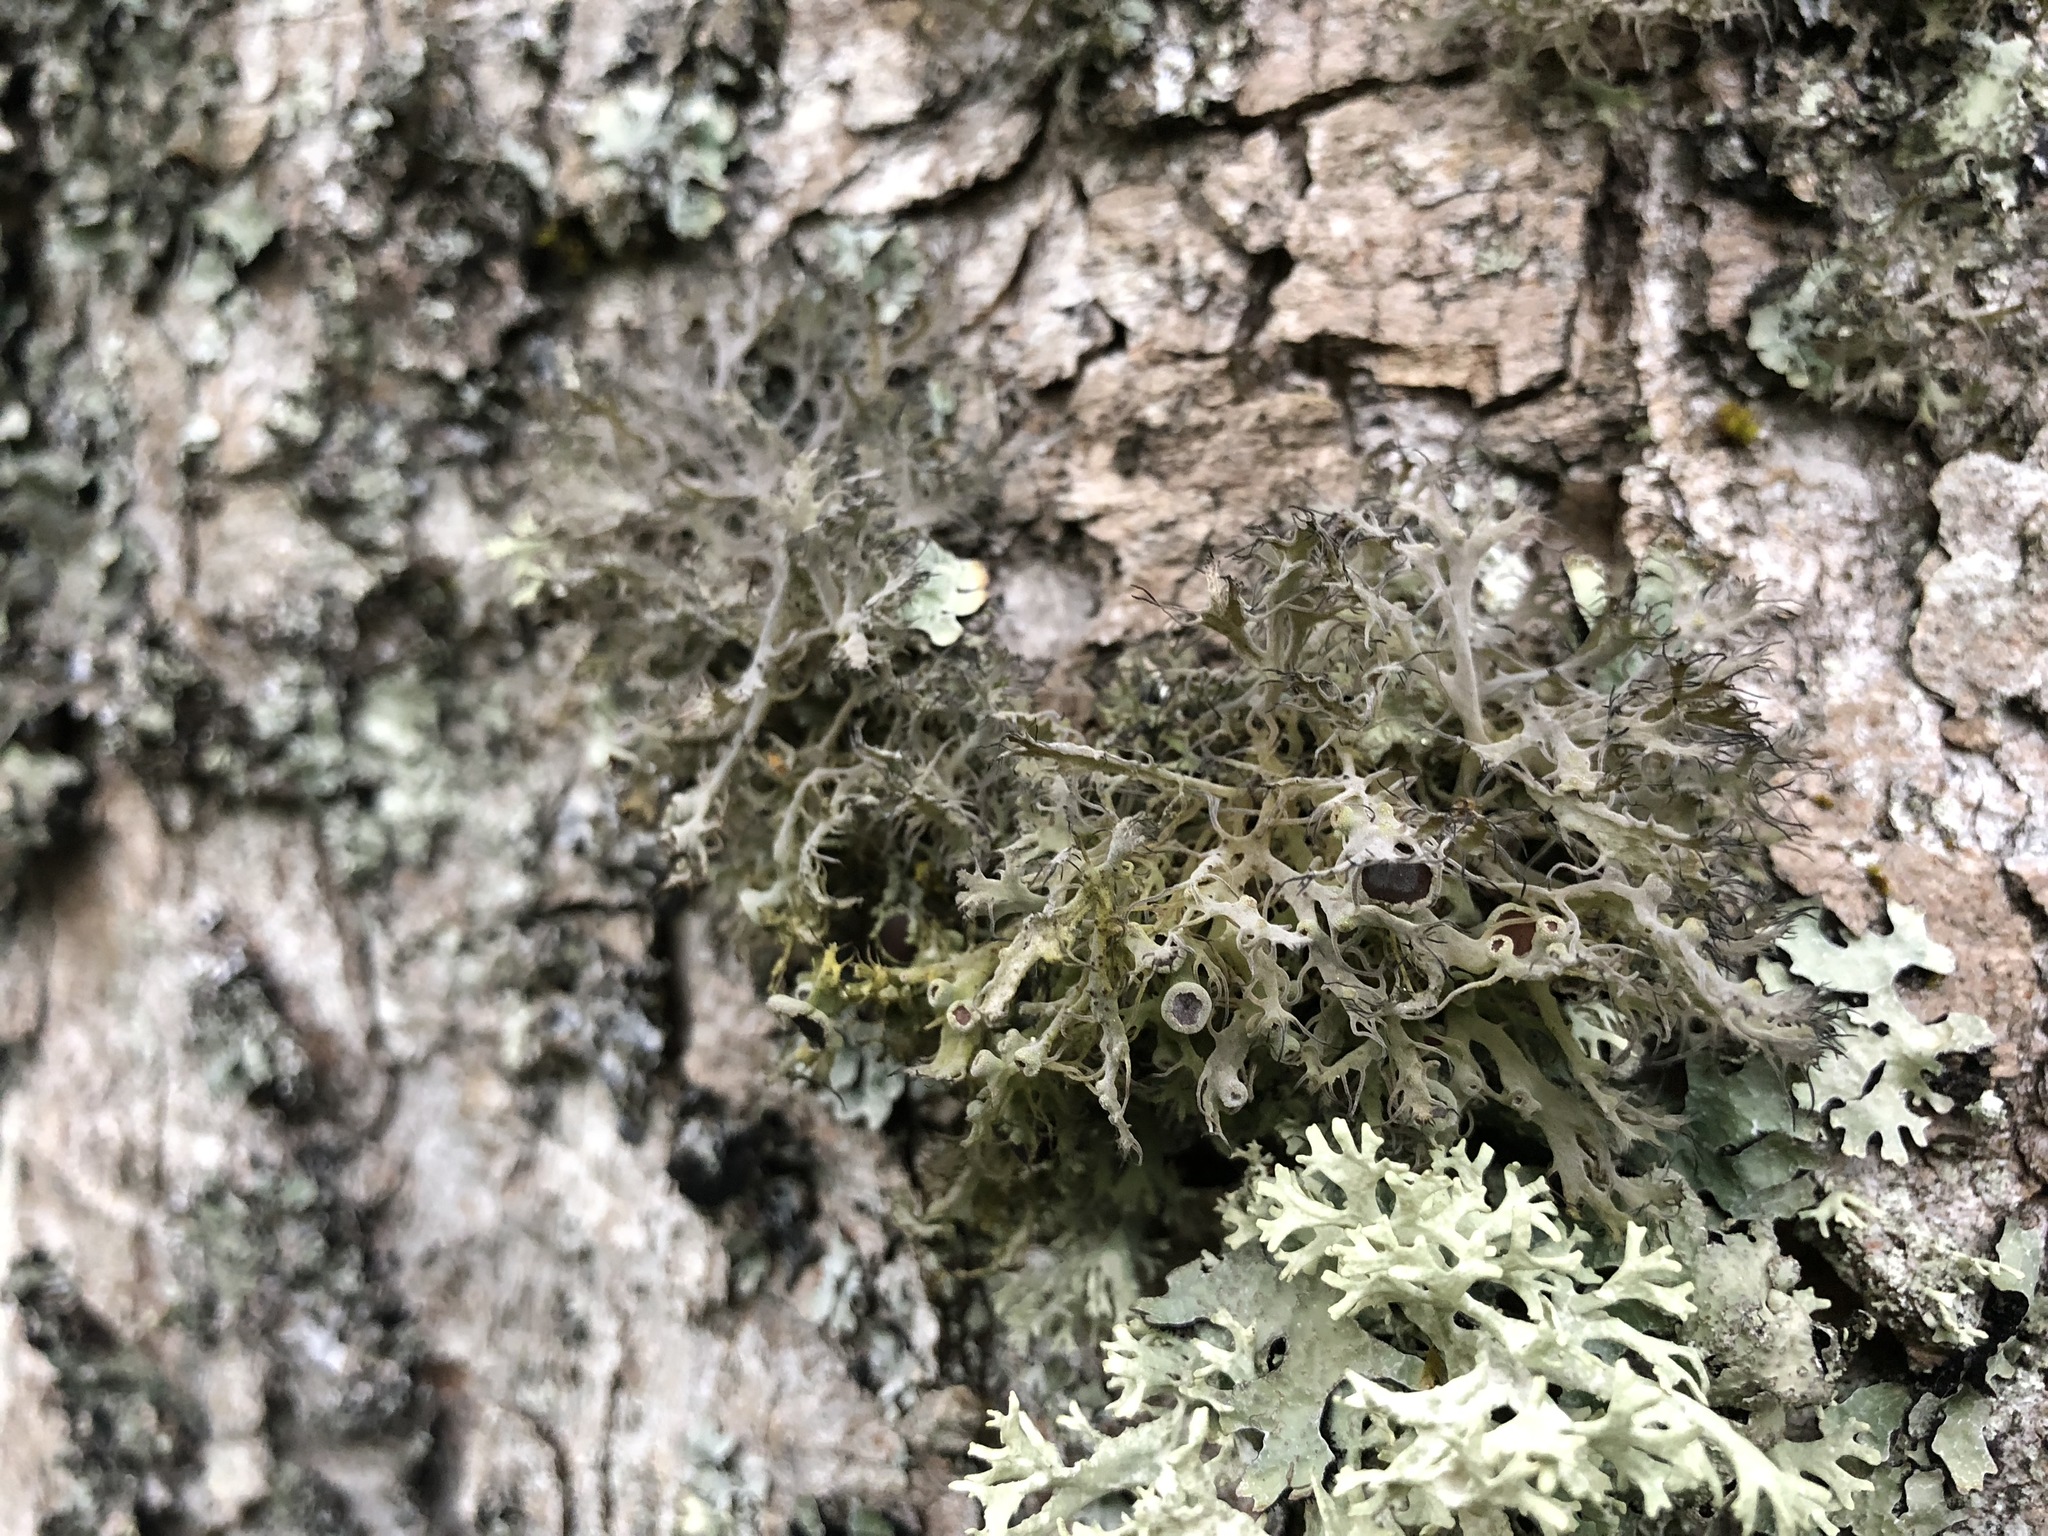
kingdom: Fungi
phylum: Ascomycota
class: Lecanoromycetes
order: Caliciales
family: Physciaceae
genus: Anaptychia
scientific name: Anaptychia ciliaris
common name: Great ciliated lichen
